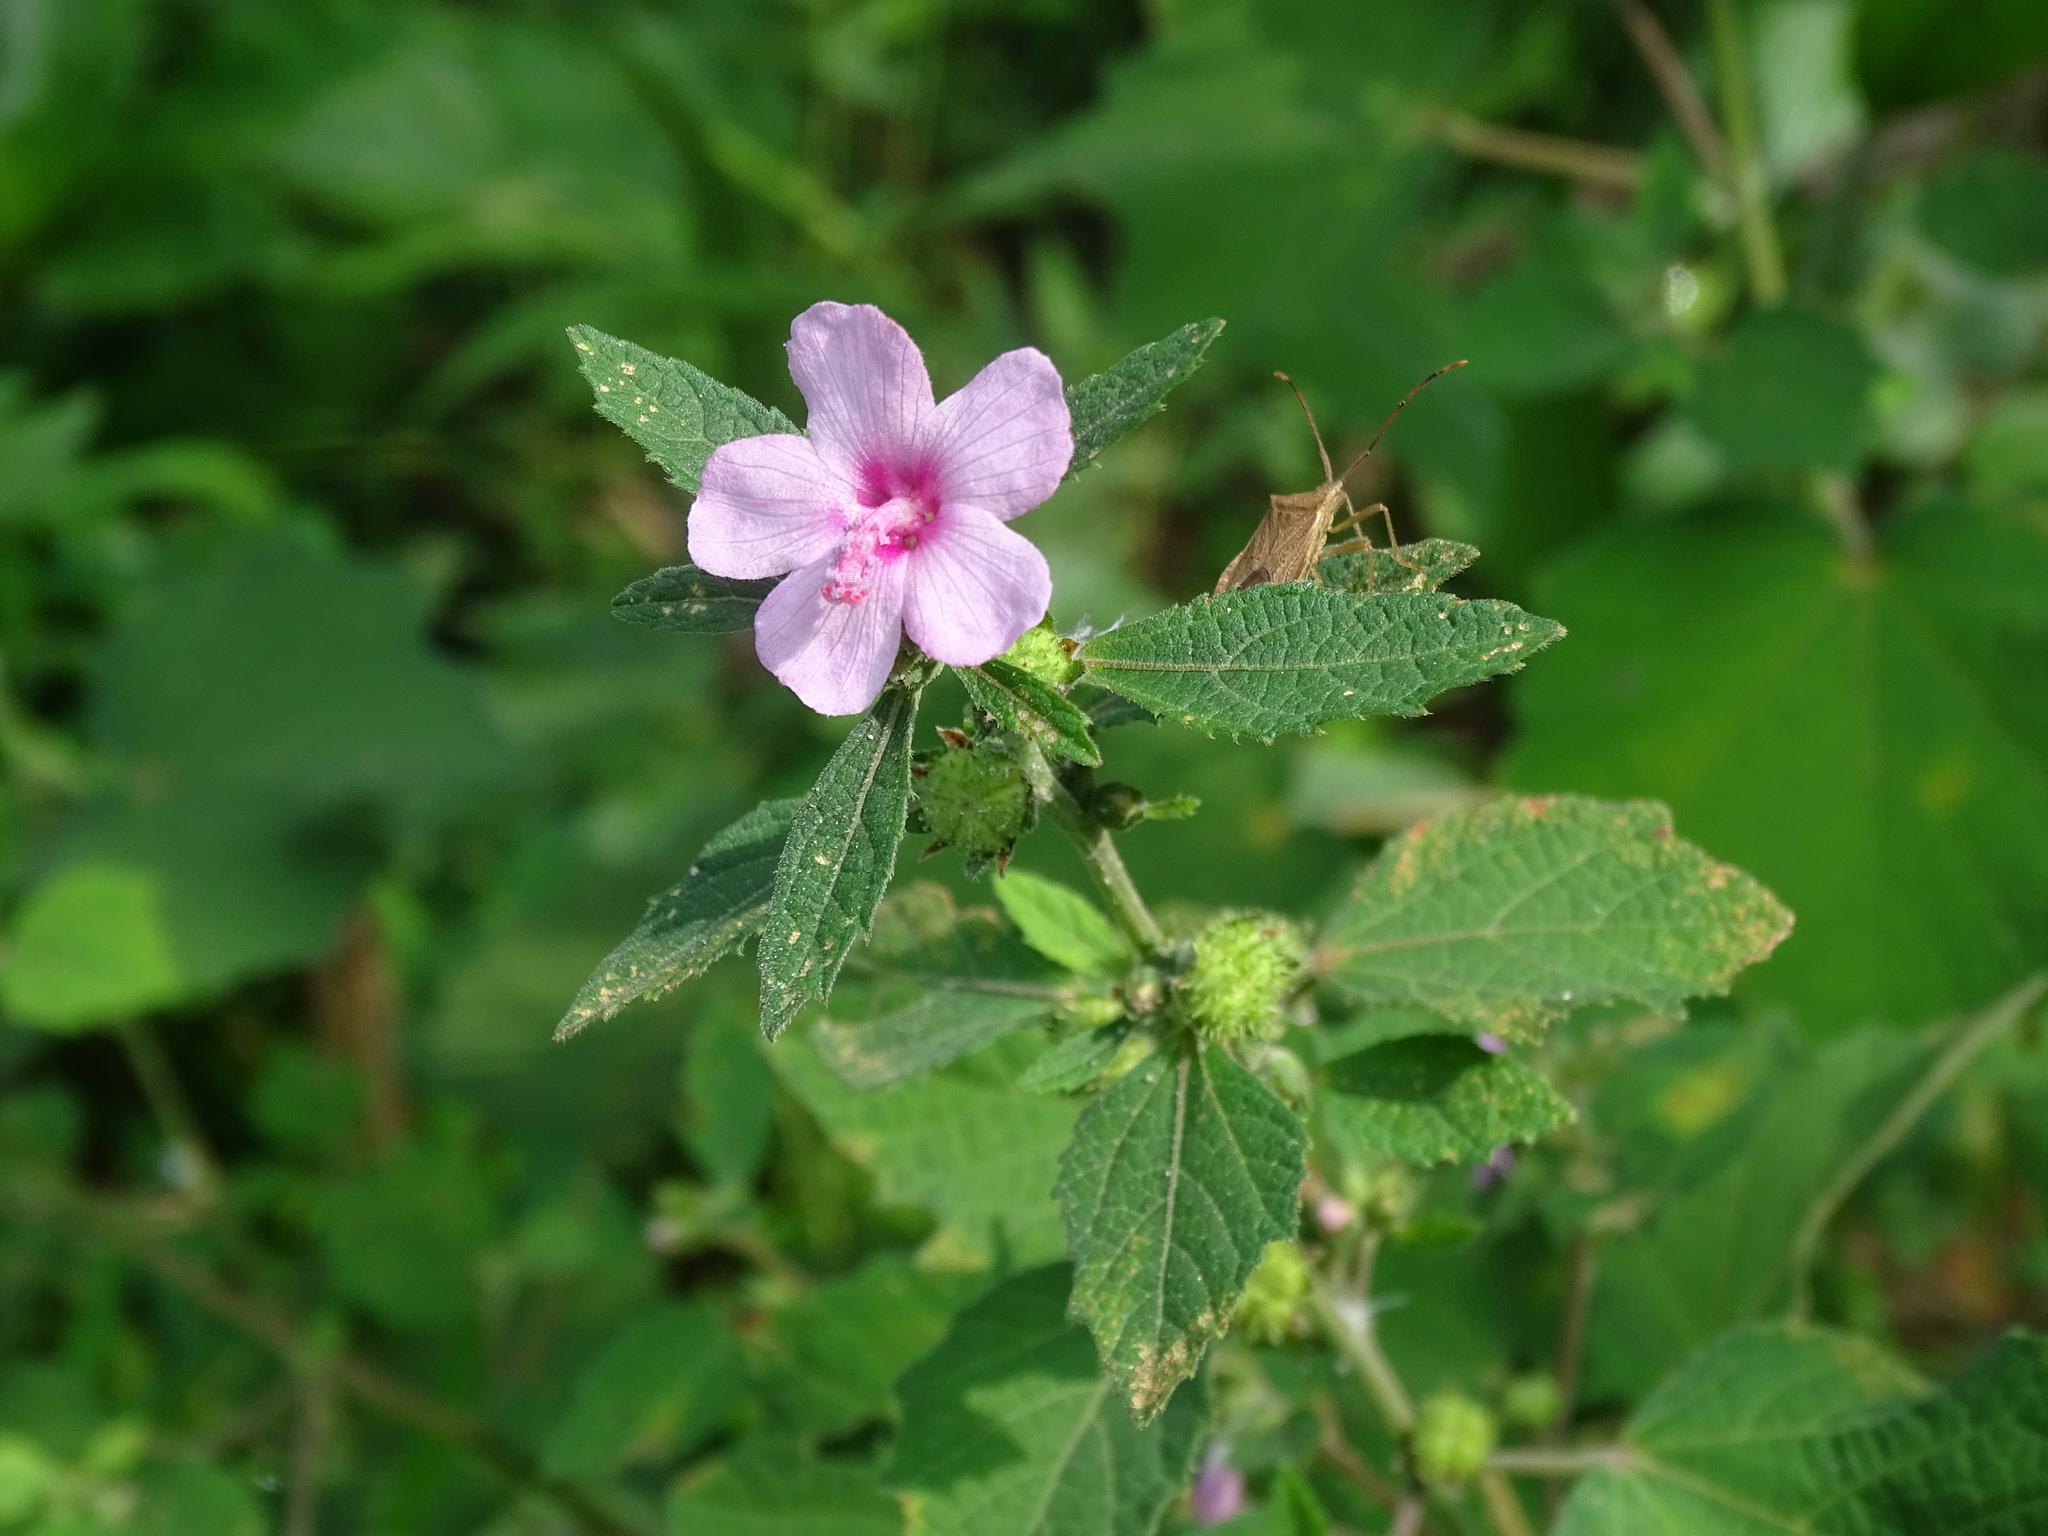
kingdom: Plantae
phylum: Tracheophyta
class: Magnoliopsida
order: Malvales
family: Malvaceae
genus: Urena
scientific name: Urena lobata
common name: Caesarweed
